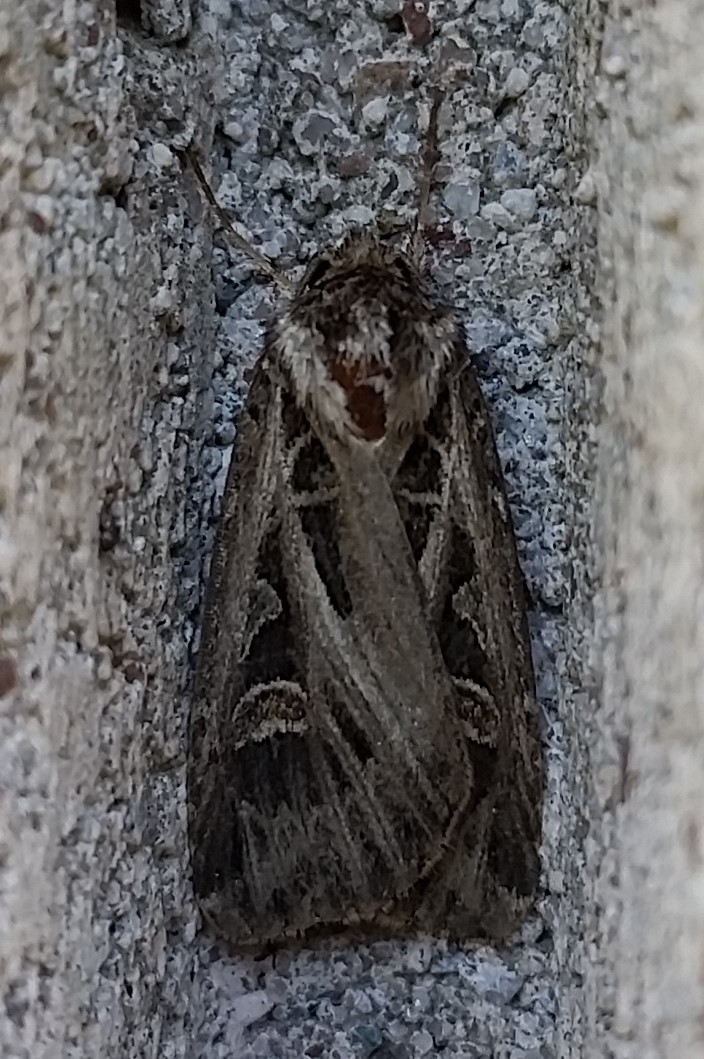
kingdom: Animalia
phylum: Arthropoda
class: Insecta
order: Lepidoptera
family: Noctuidae
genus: Feltia
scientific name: Feltia jaculifera
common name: Dingy cutworm moth
